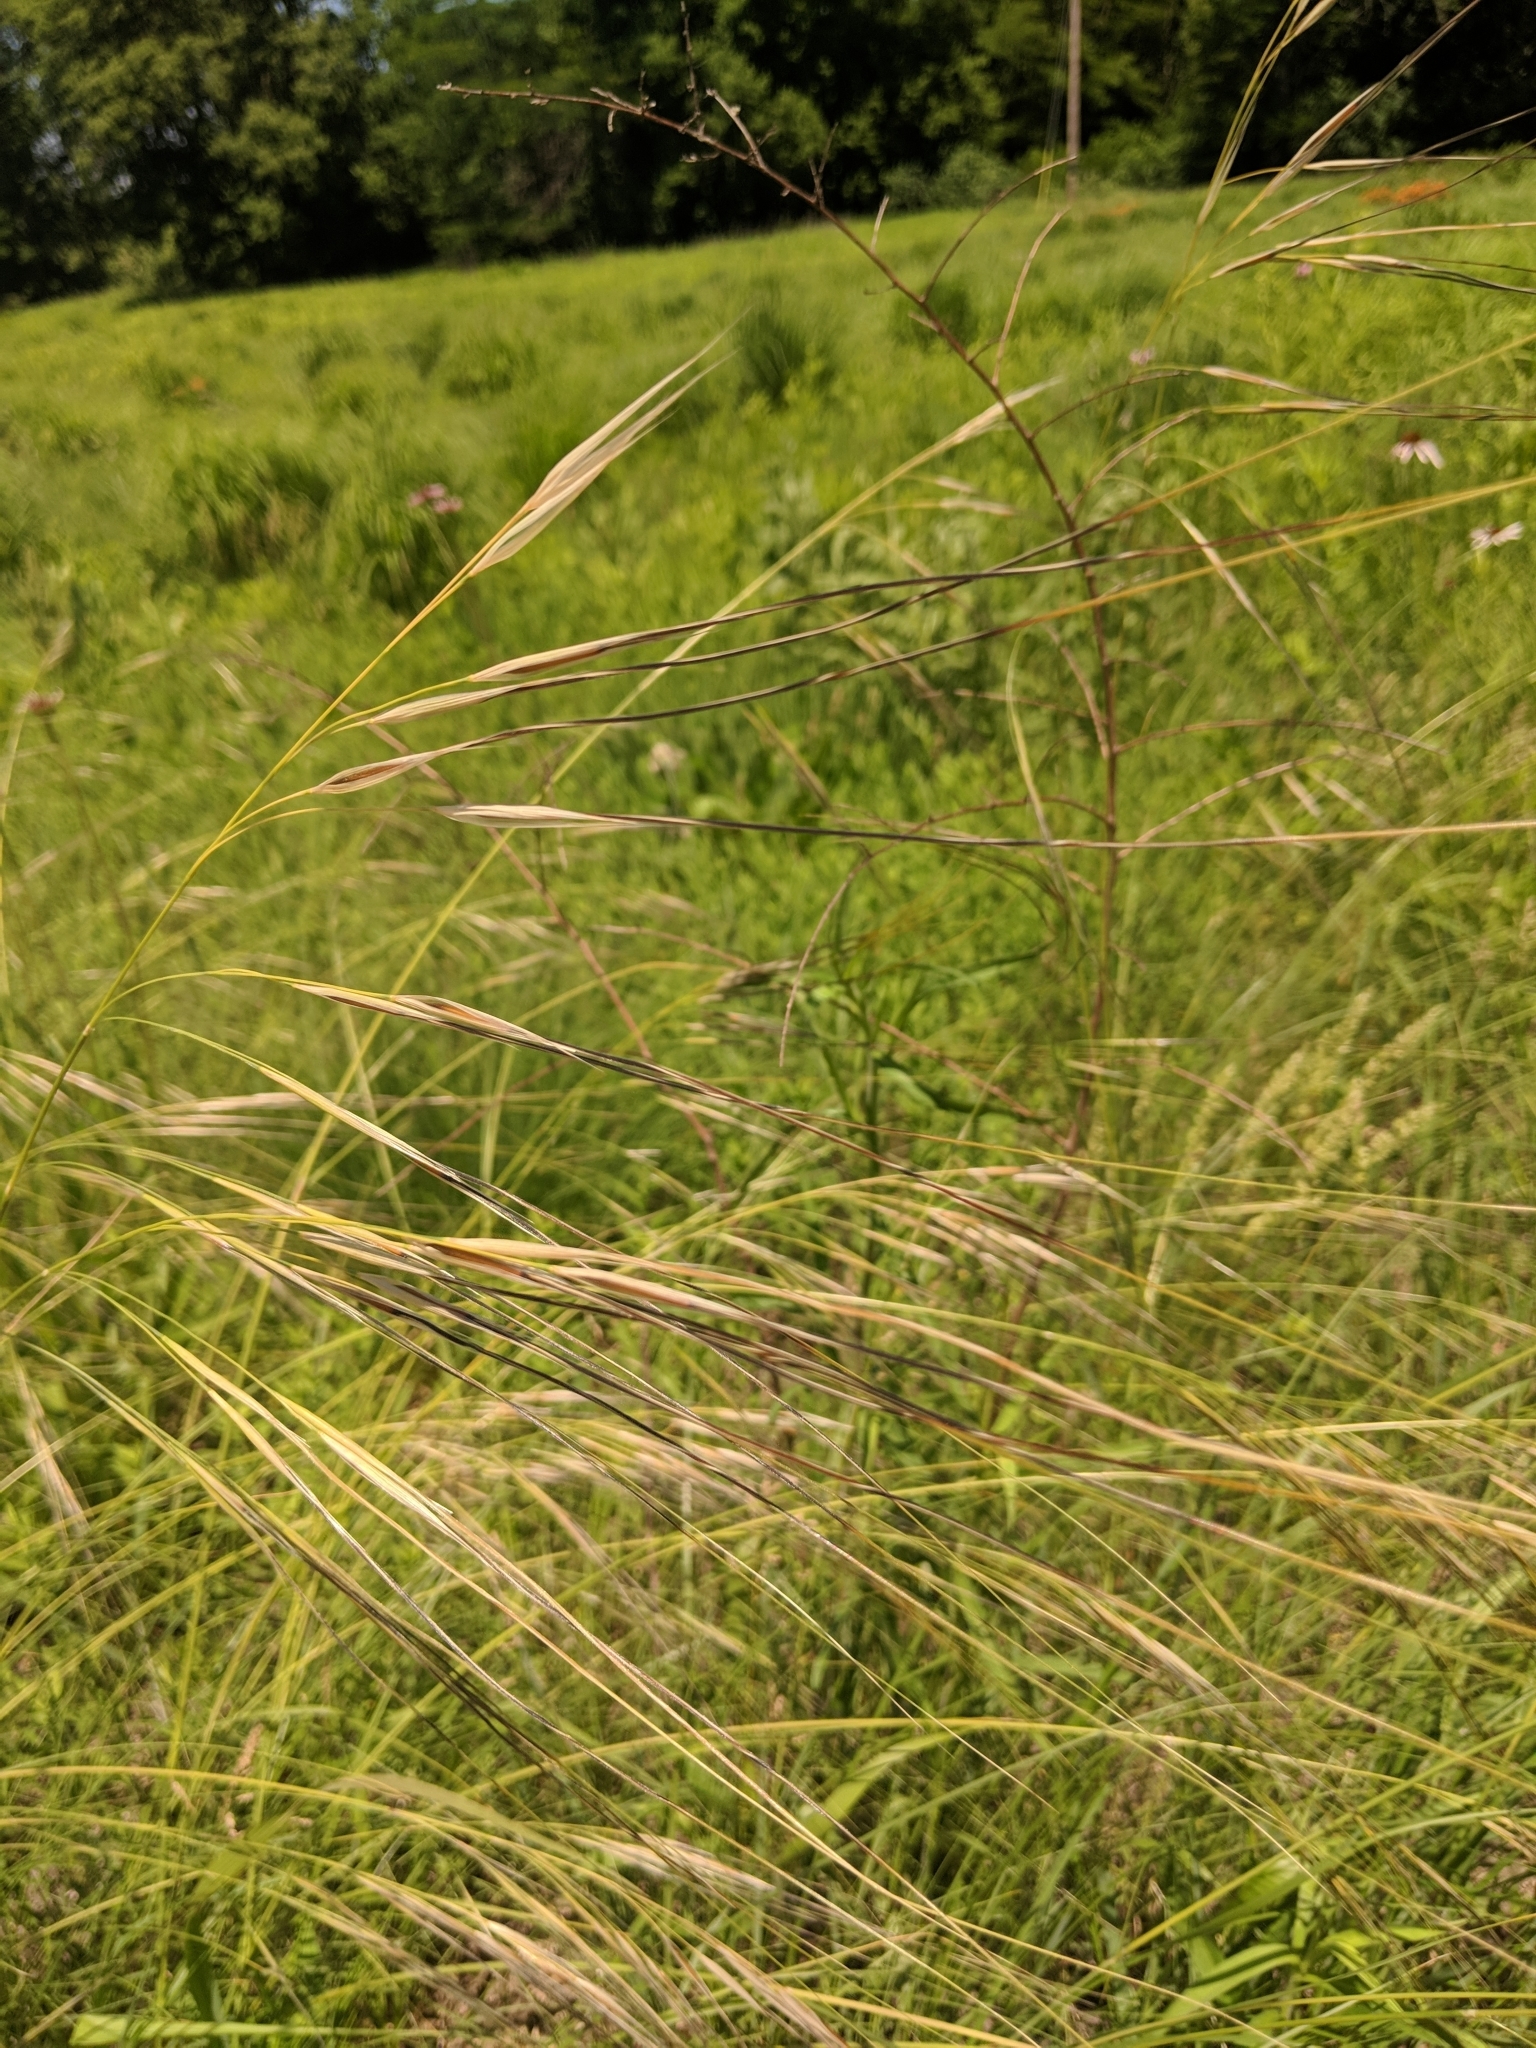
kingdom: Plantae
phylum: Tracheophyta
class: Liliopsida
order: Poales
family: Poaceae
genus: Hesperostipa
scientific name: Hesperostipa spartea
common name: Porcupine grass
